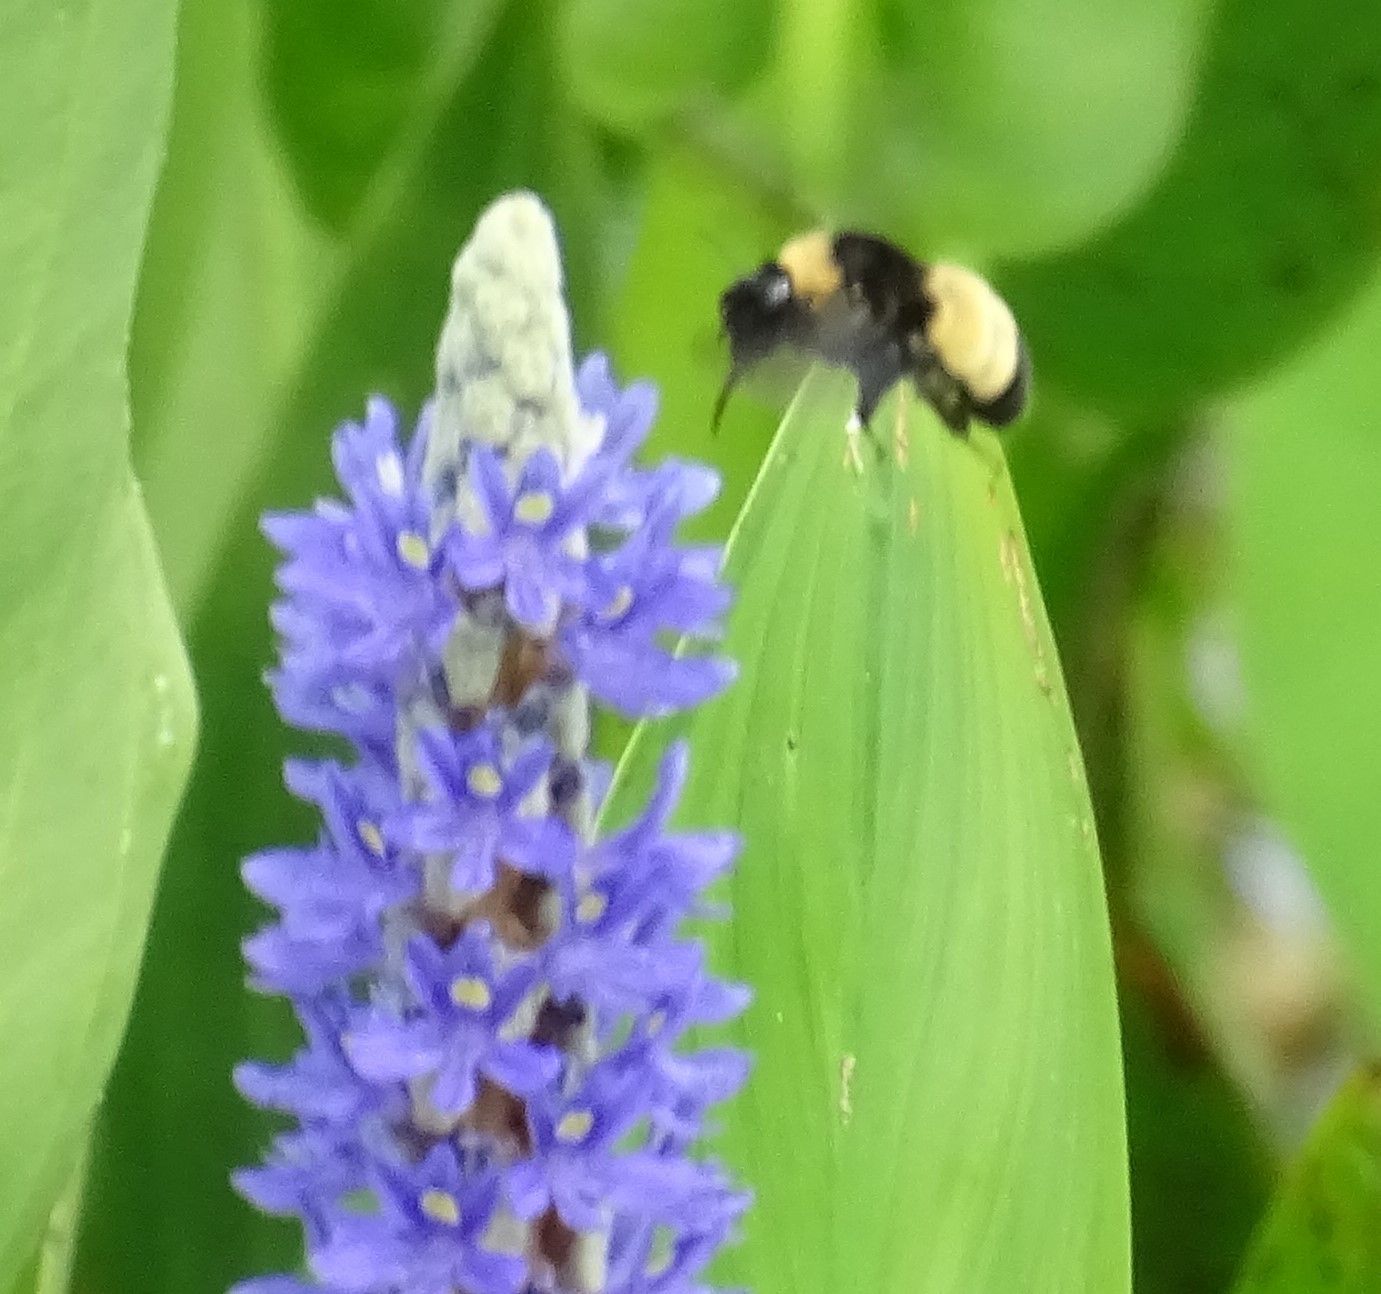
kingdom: Animalia
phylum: Arthropoda
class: Insecta
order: Hymenoptera
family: Apidae
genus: Bombus
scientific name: Bombus pensylvanicus
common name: Bumble bee
